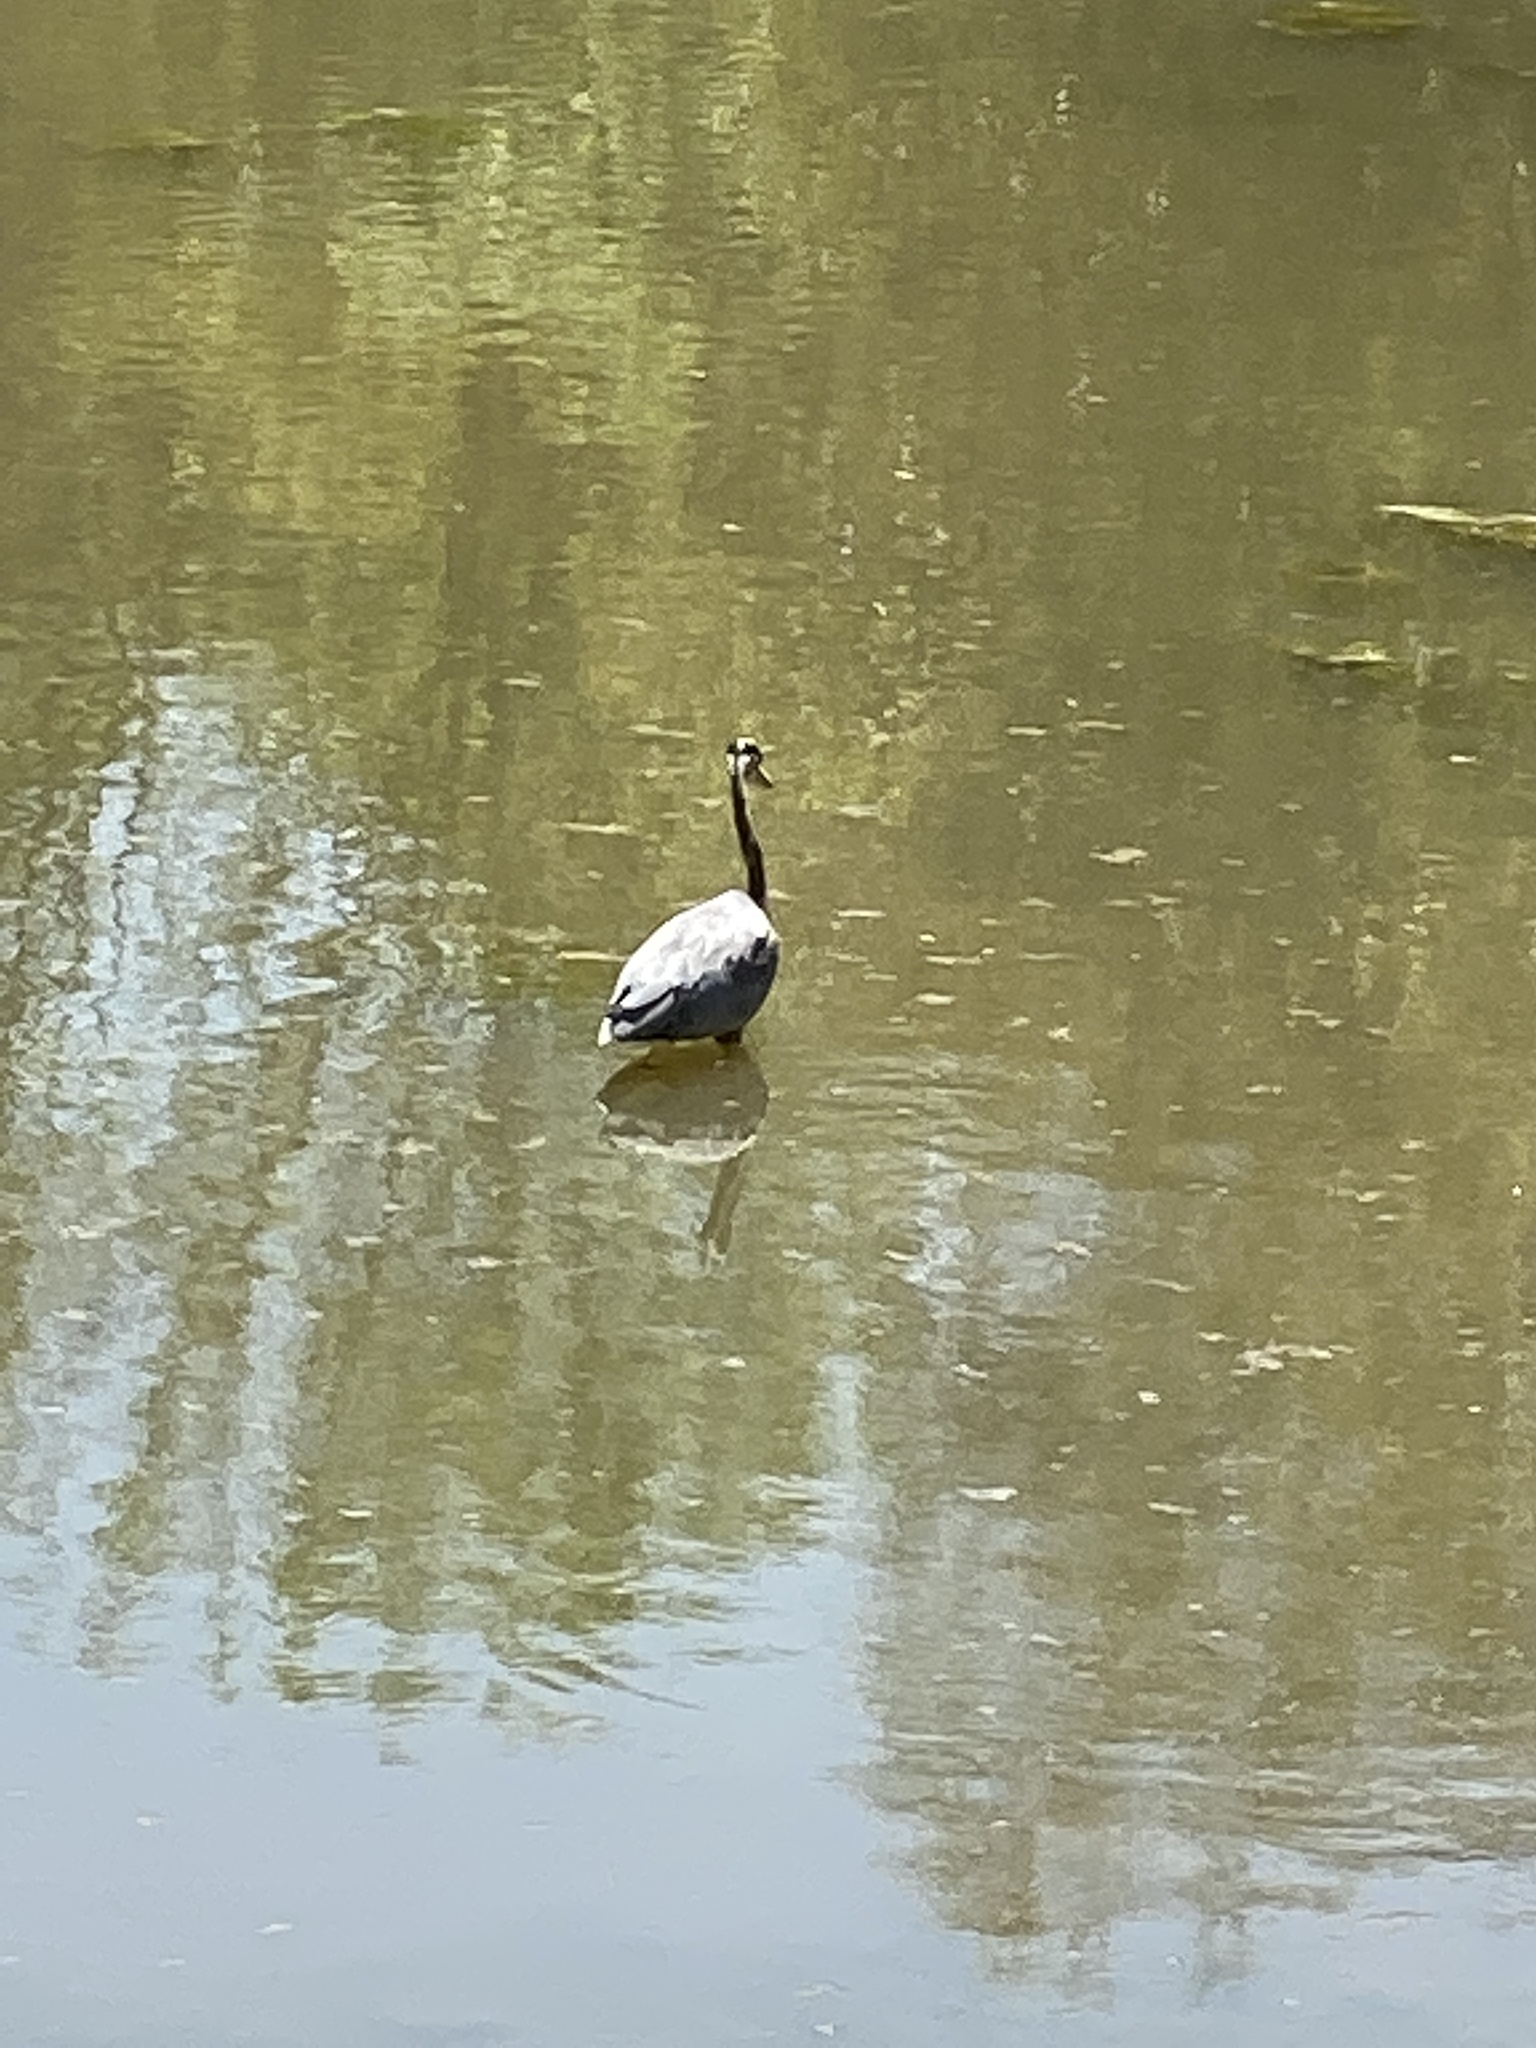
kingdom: Animalia
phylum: Chordata
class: Aves
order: Pelecaniformes
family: Ardeidae
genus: Ardea
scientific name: Ardea herodias
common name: Great blue heron
